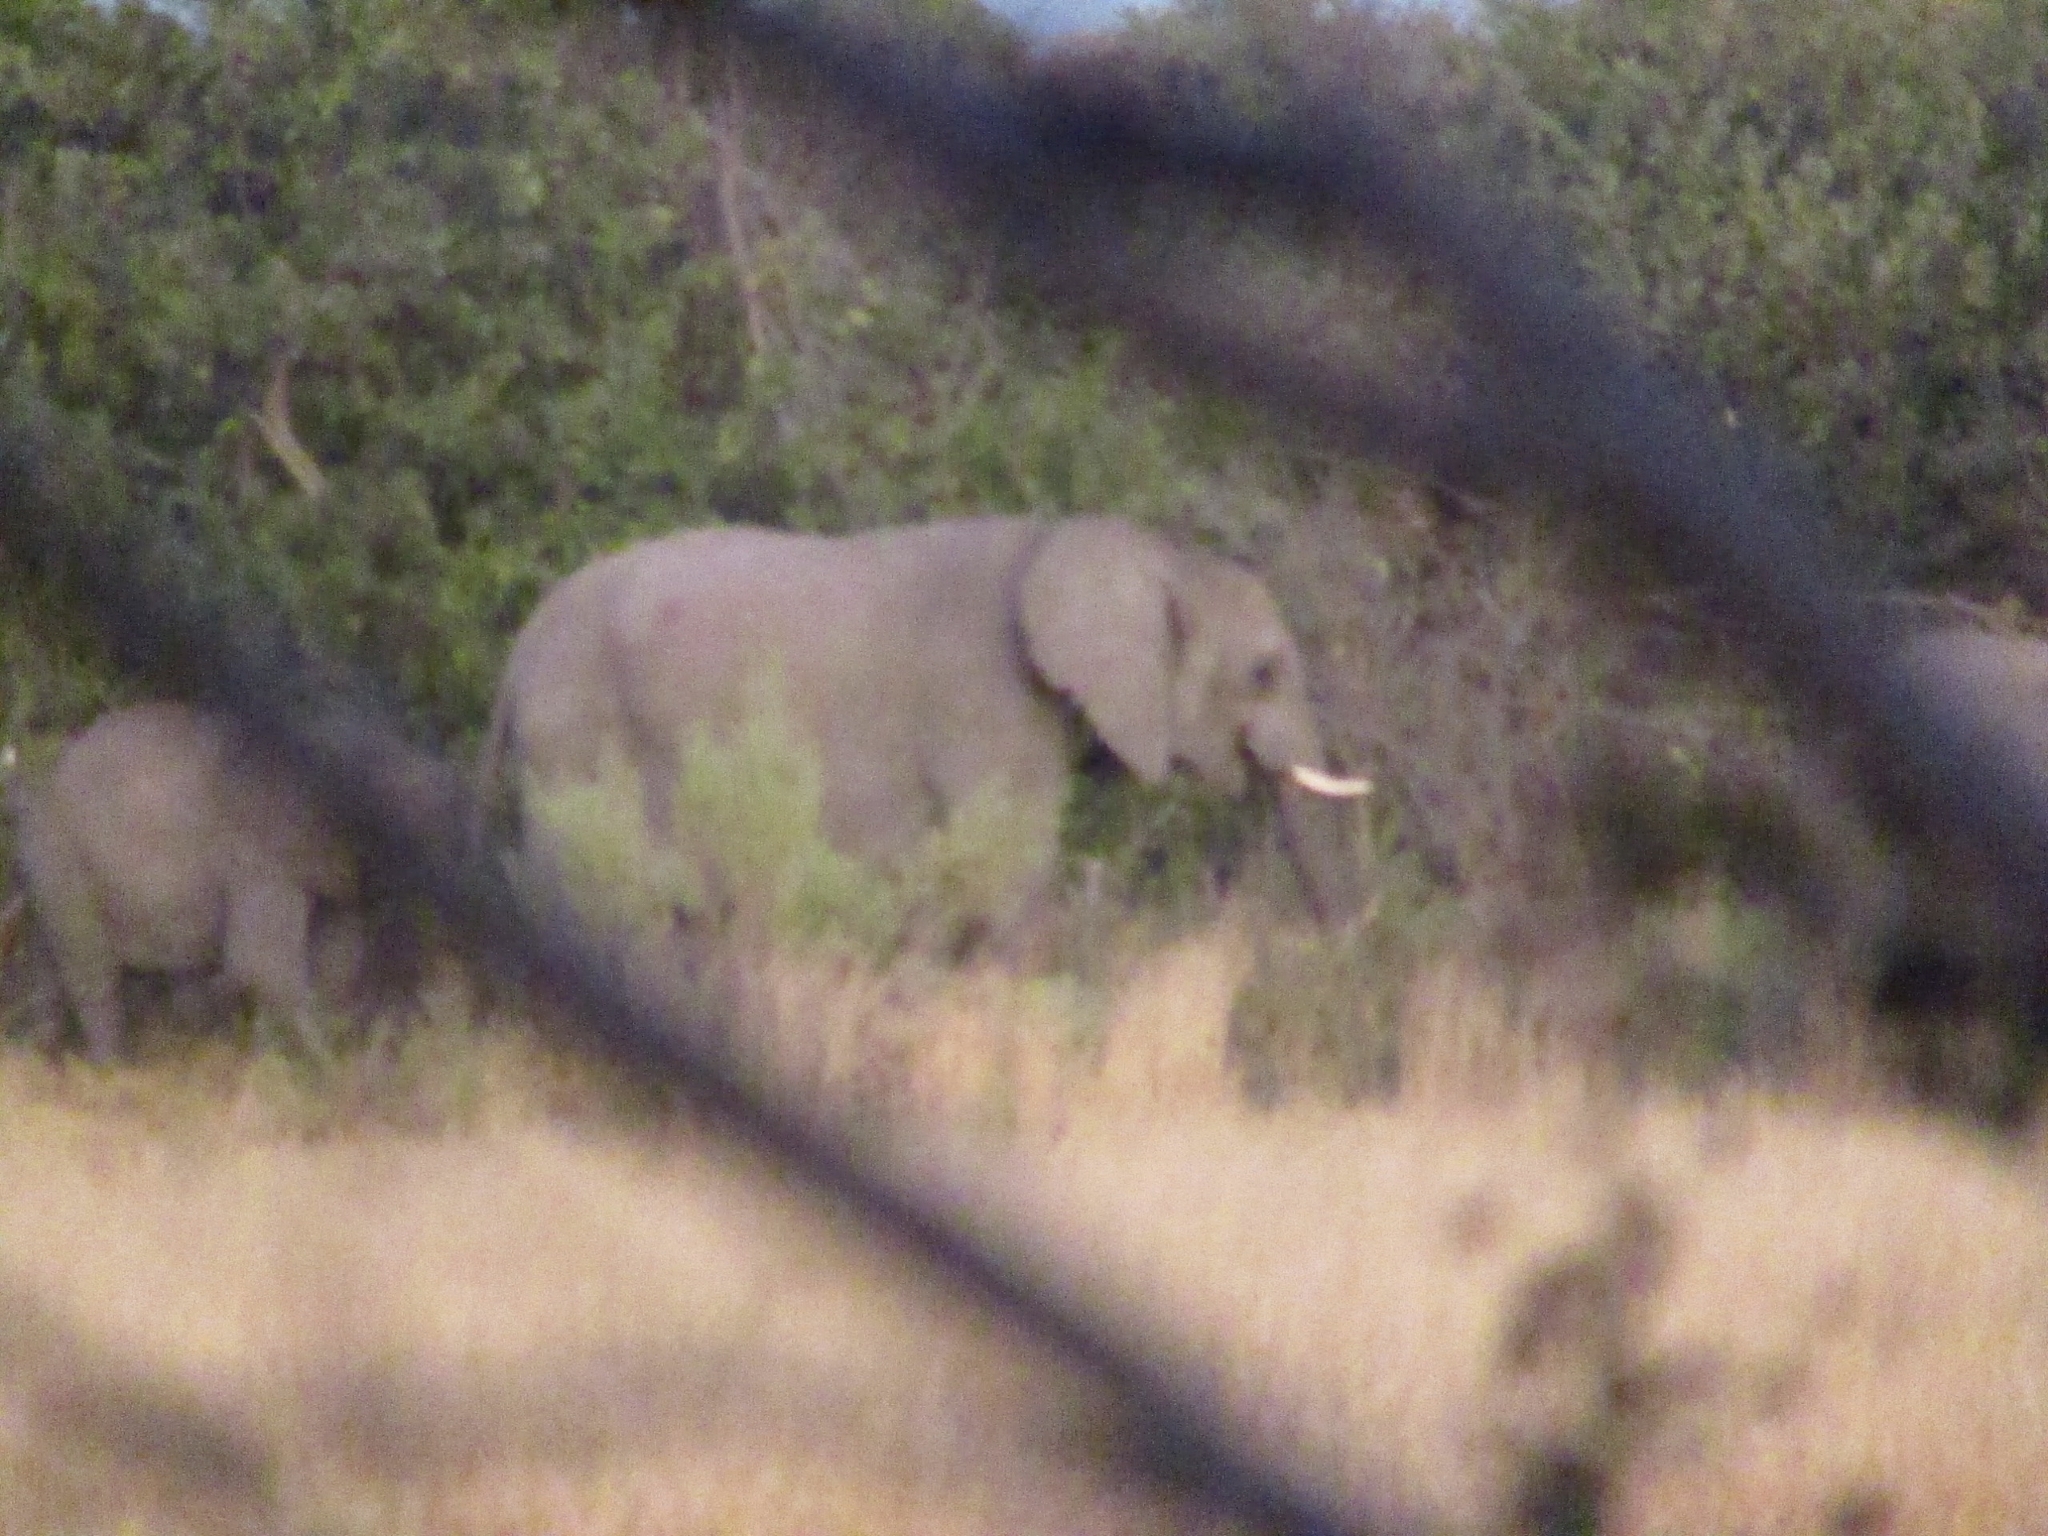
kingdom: Animalia
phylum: Chordata
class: Mammalia
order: Proboscidea
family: Elephantidae
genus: Loxodonta
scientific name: Loxodonta africana
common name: African elephant
